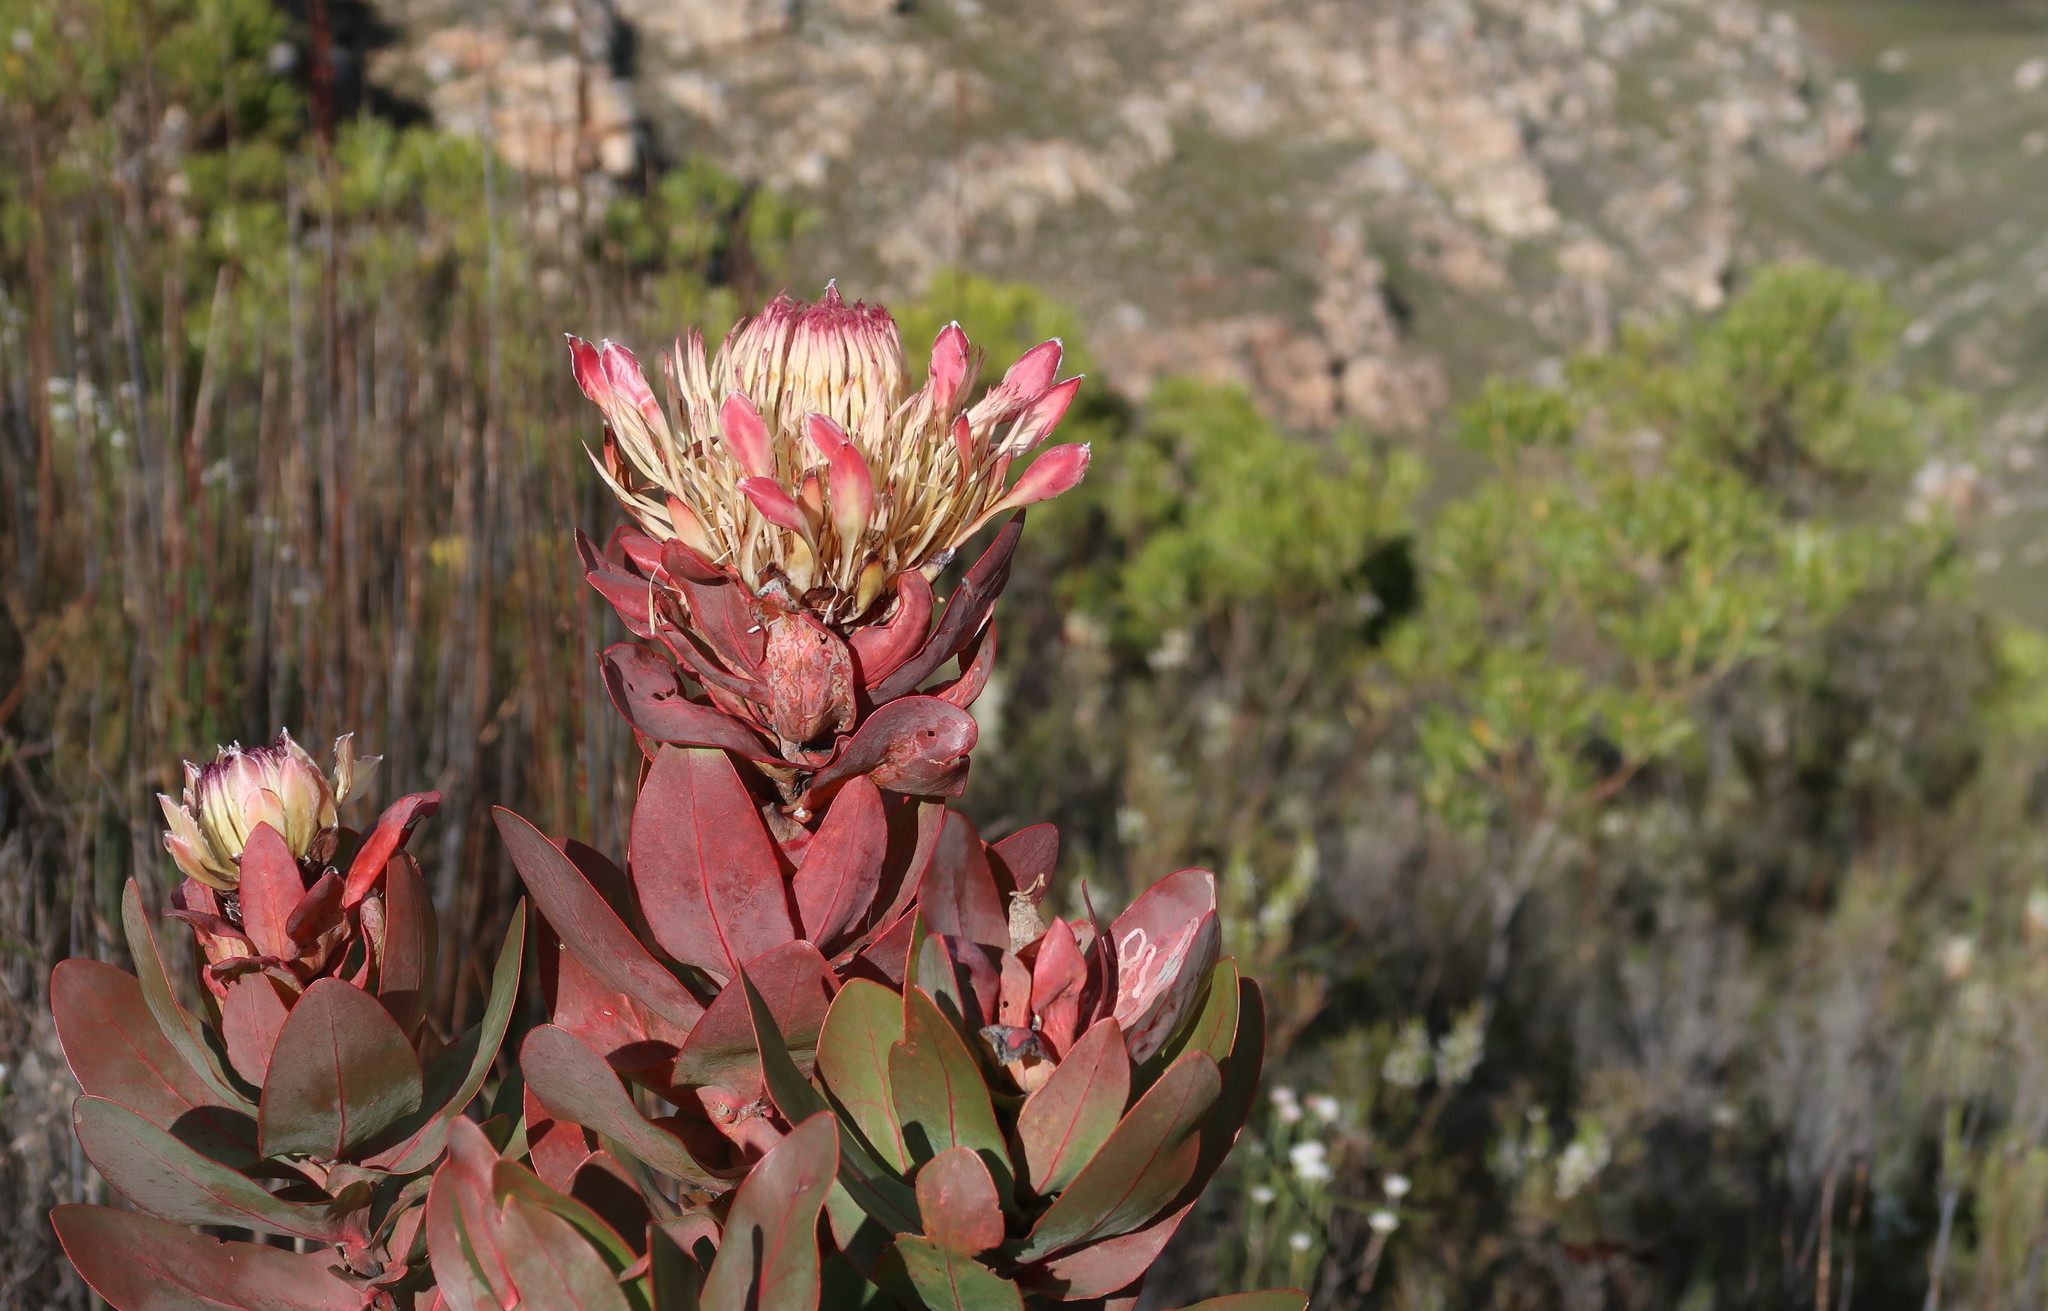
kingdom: Plantae
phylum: Tracheophyta
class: Magnoliopsida
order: Proteales
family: Proteaceae
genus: Protea
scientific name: Protea eximia
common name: Broad-leaved sugarbush
